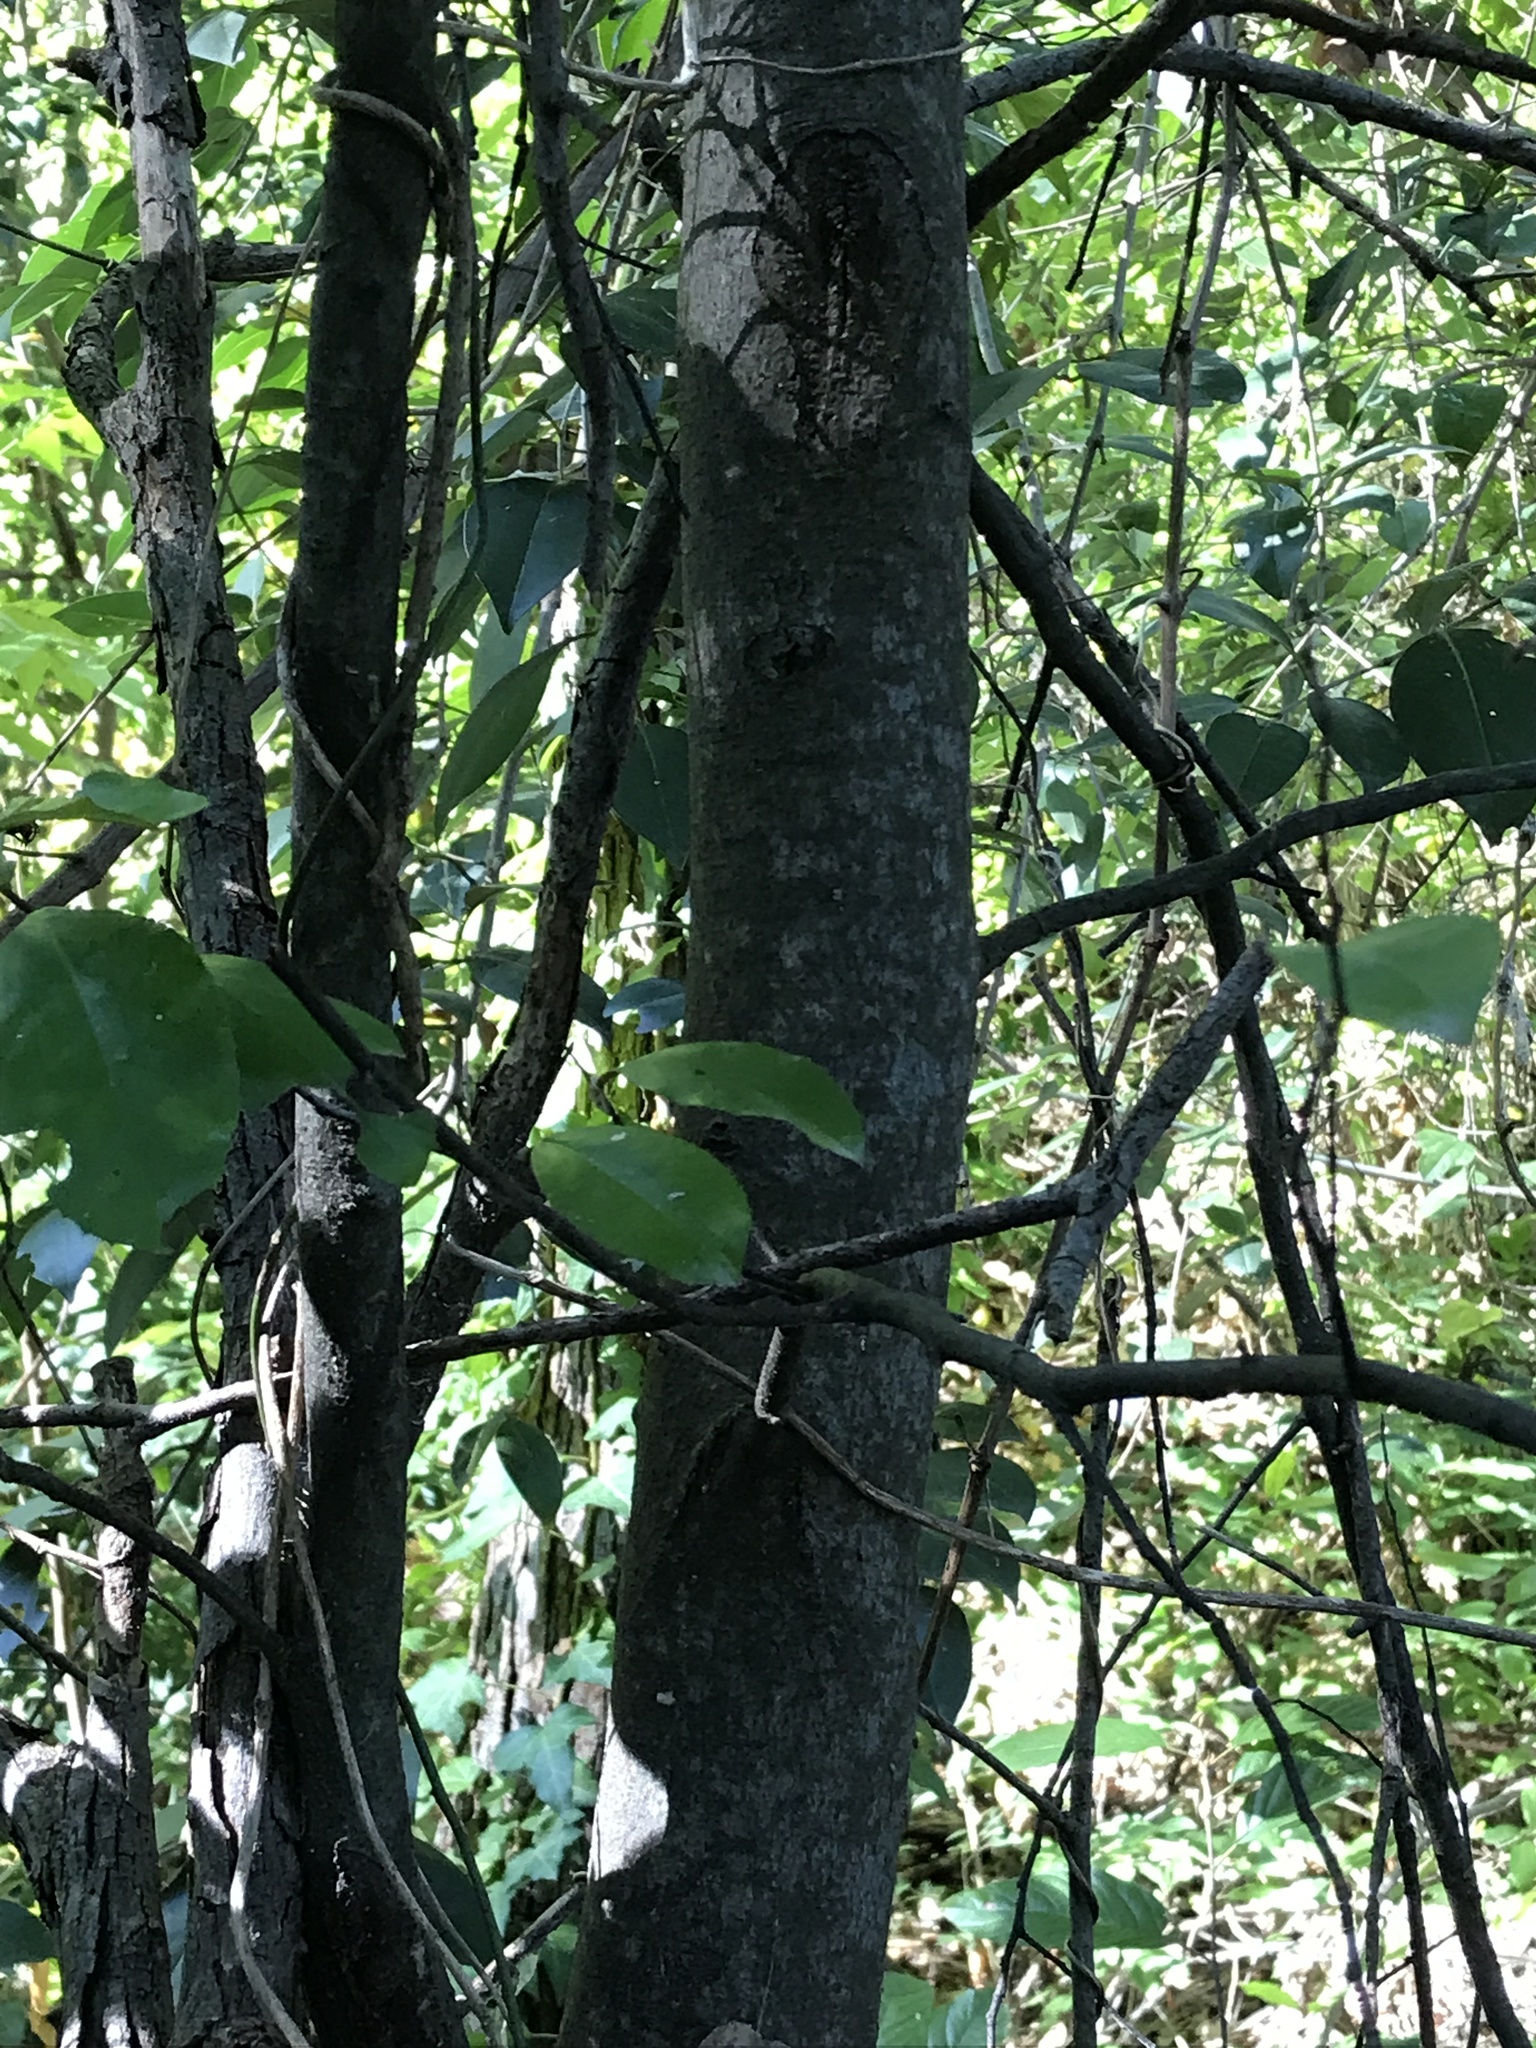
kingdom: Plantae
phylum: Tracheophyta
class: Magnoliopsida
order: Rosales
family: Rosaceae
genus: Prunus
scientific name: Prunus caroliniana
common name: Carolina laurel cherry
